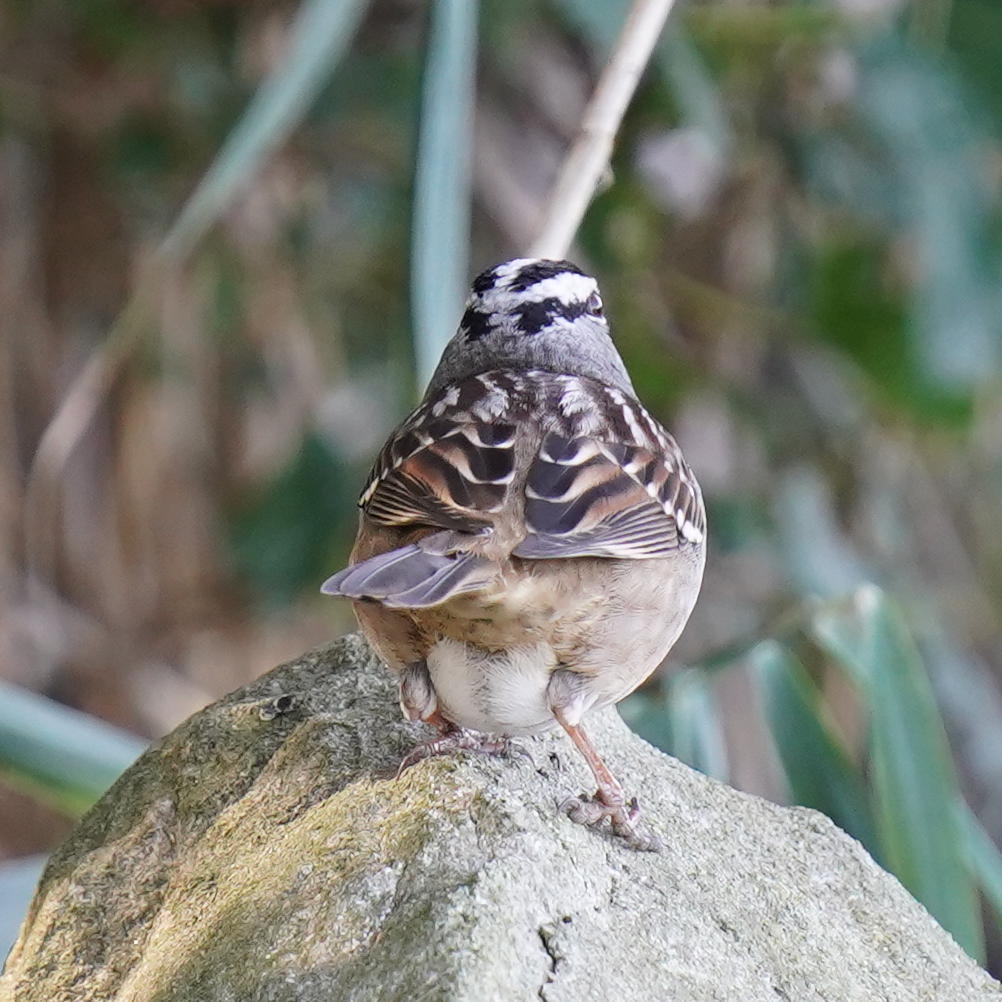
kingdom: Animalia
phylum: Chordata
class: Aves
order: Passeriformes
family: Passerellidae
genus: Zonotrichia
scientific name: Zonotrichia leucophrys
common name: White-crowned sparrow
